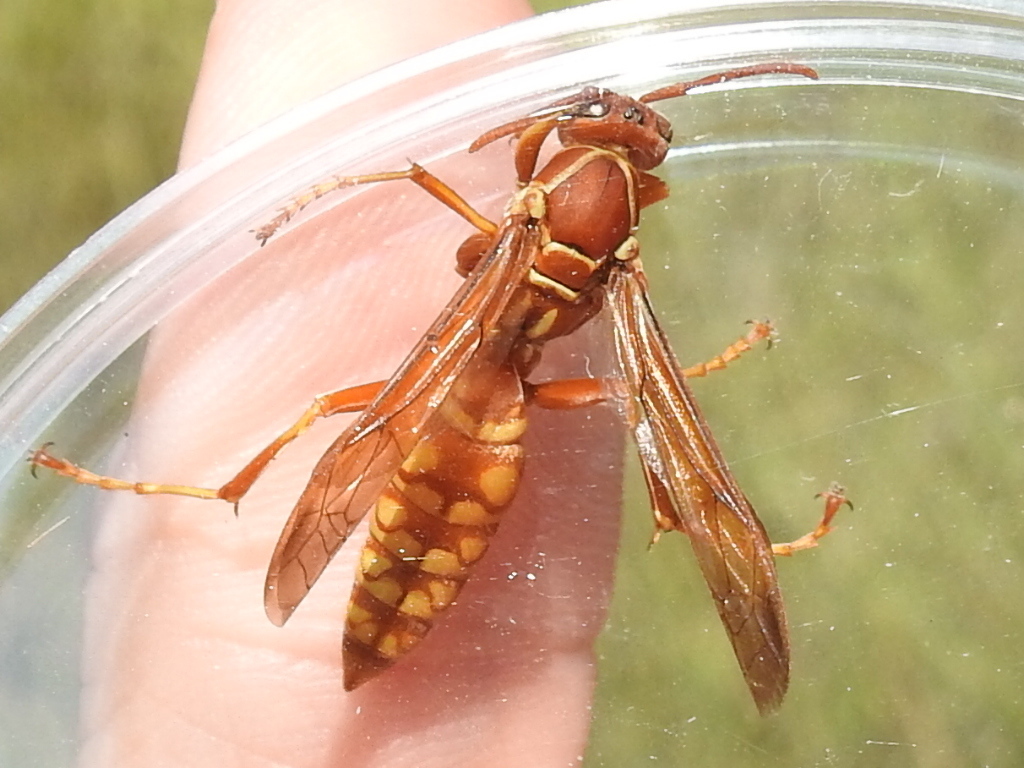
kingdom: Animalia
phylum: Arthropoda
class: Insecta
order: Hymenoptera
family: Eumenidae
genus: Polistes
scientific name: Polistes apachus
